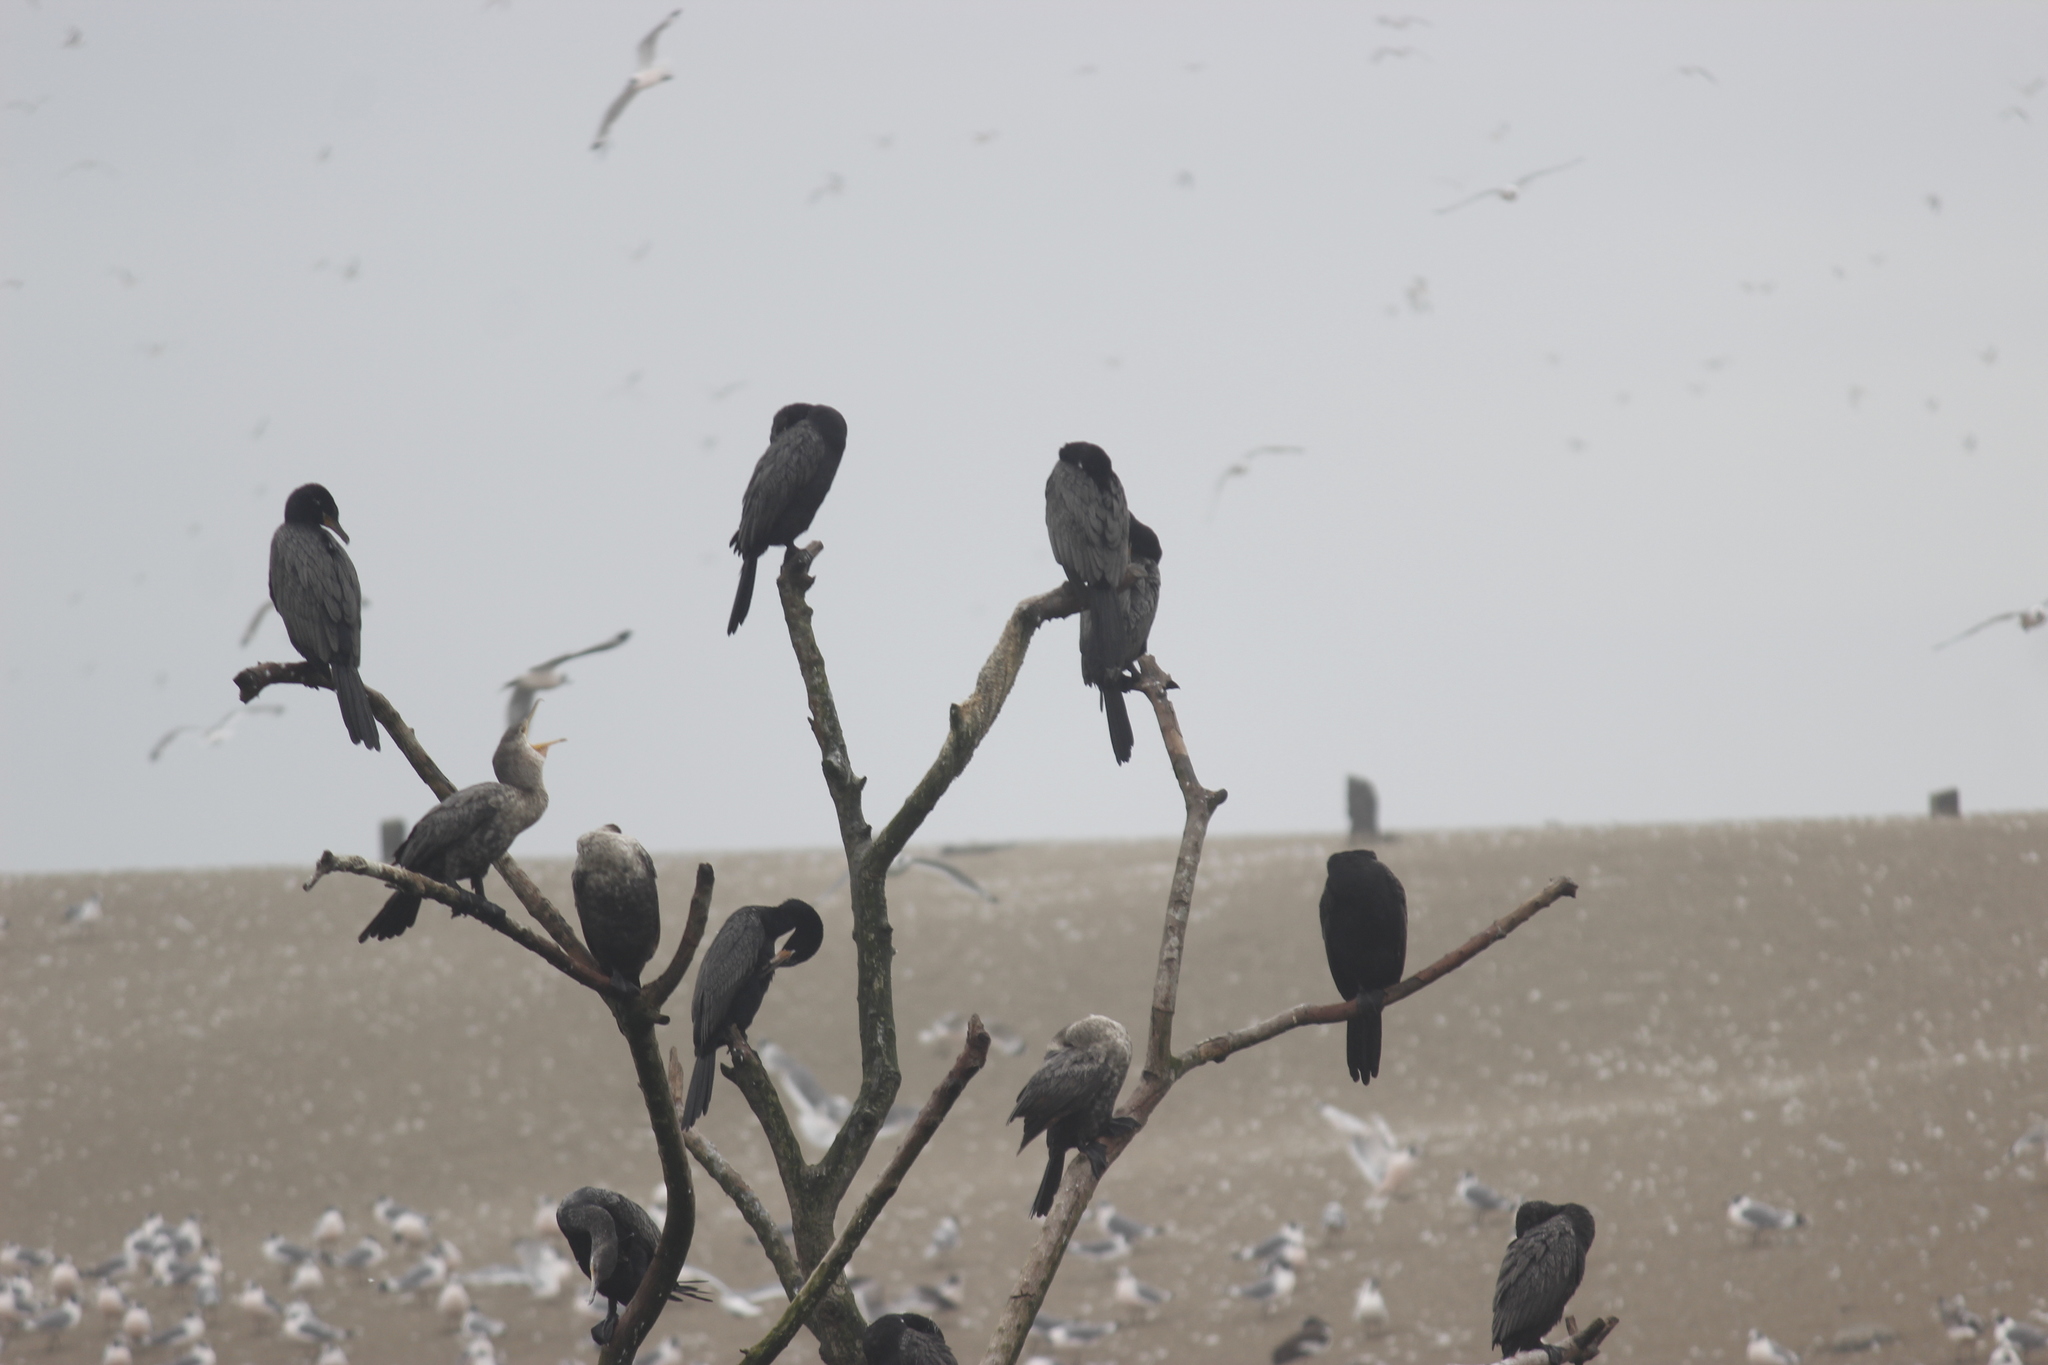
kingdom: Animalia
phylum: Chordata
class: Aves
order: Suliformes
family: Phalacrocoracidae
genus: Phalacrocorax
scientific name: Phalacrocorax brasilianus
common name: Neotropic cormorant
